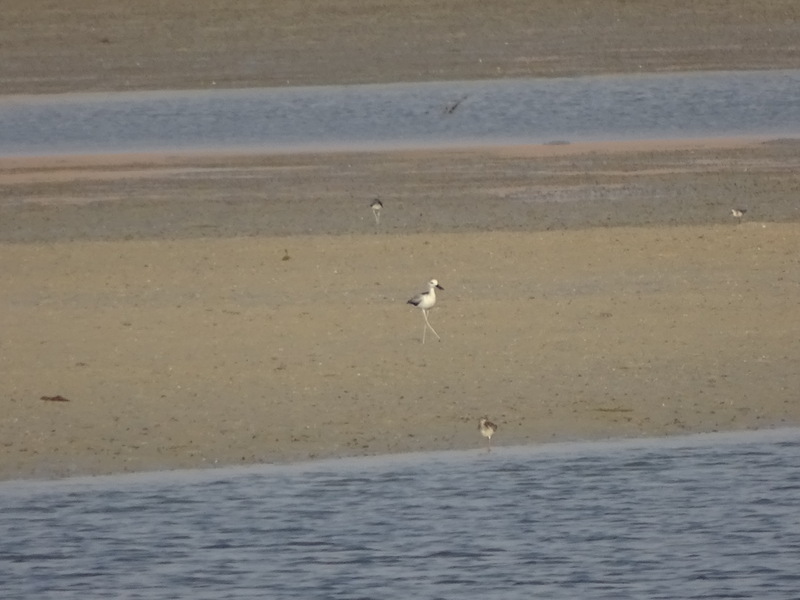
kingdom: Animalia
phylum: Chordata
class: Aves
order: Charadriiformes
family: Dromadidae
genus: Dromas
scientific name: Dromas ardeola
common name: Crab-plover
